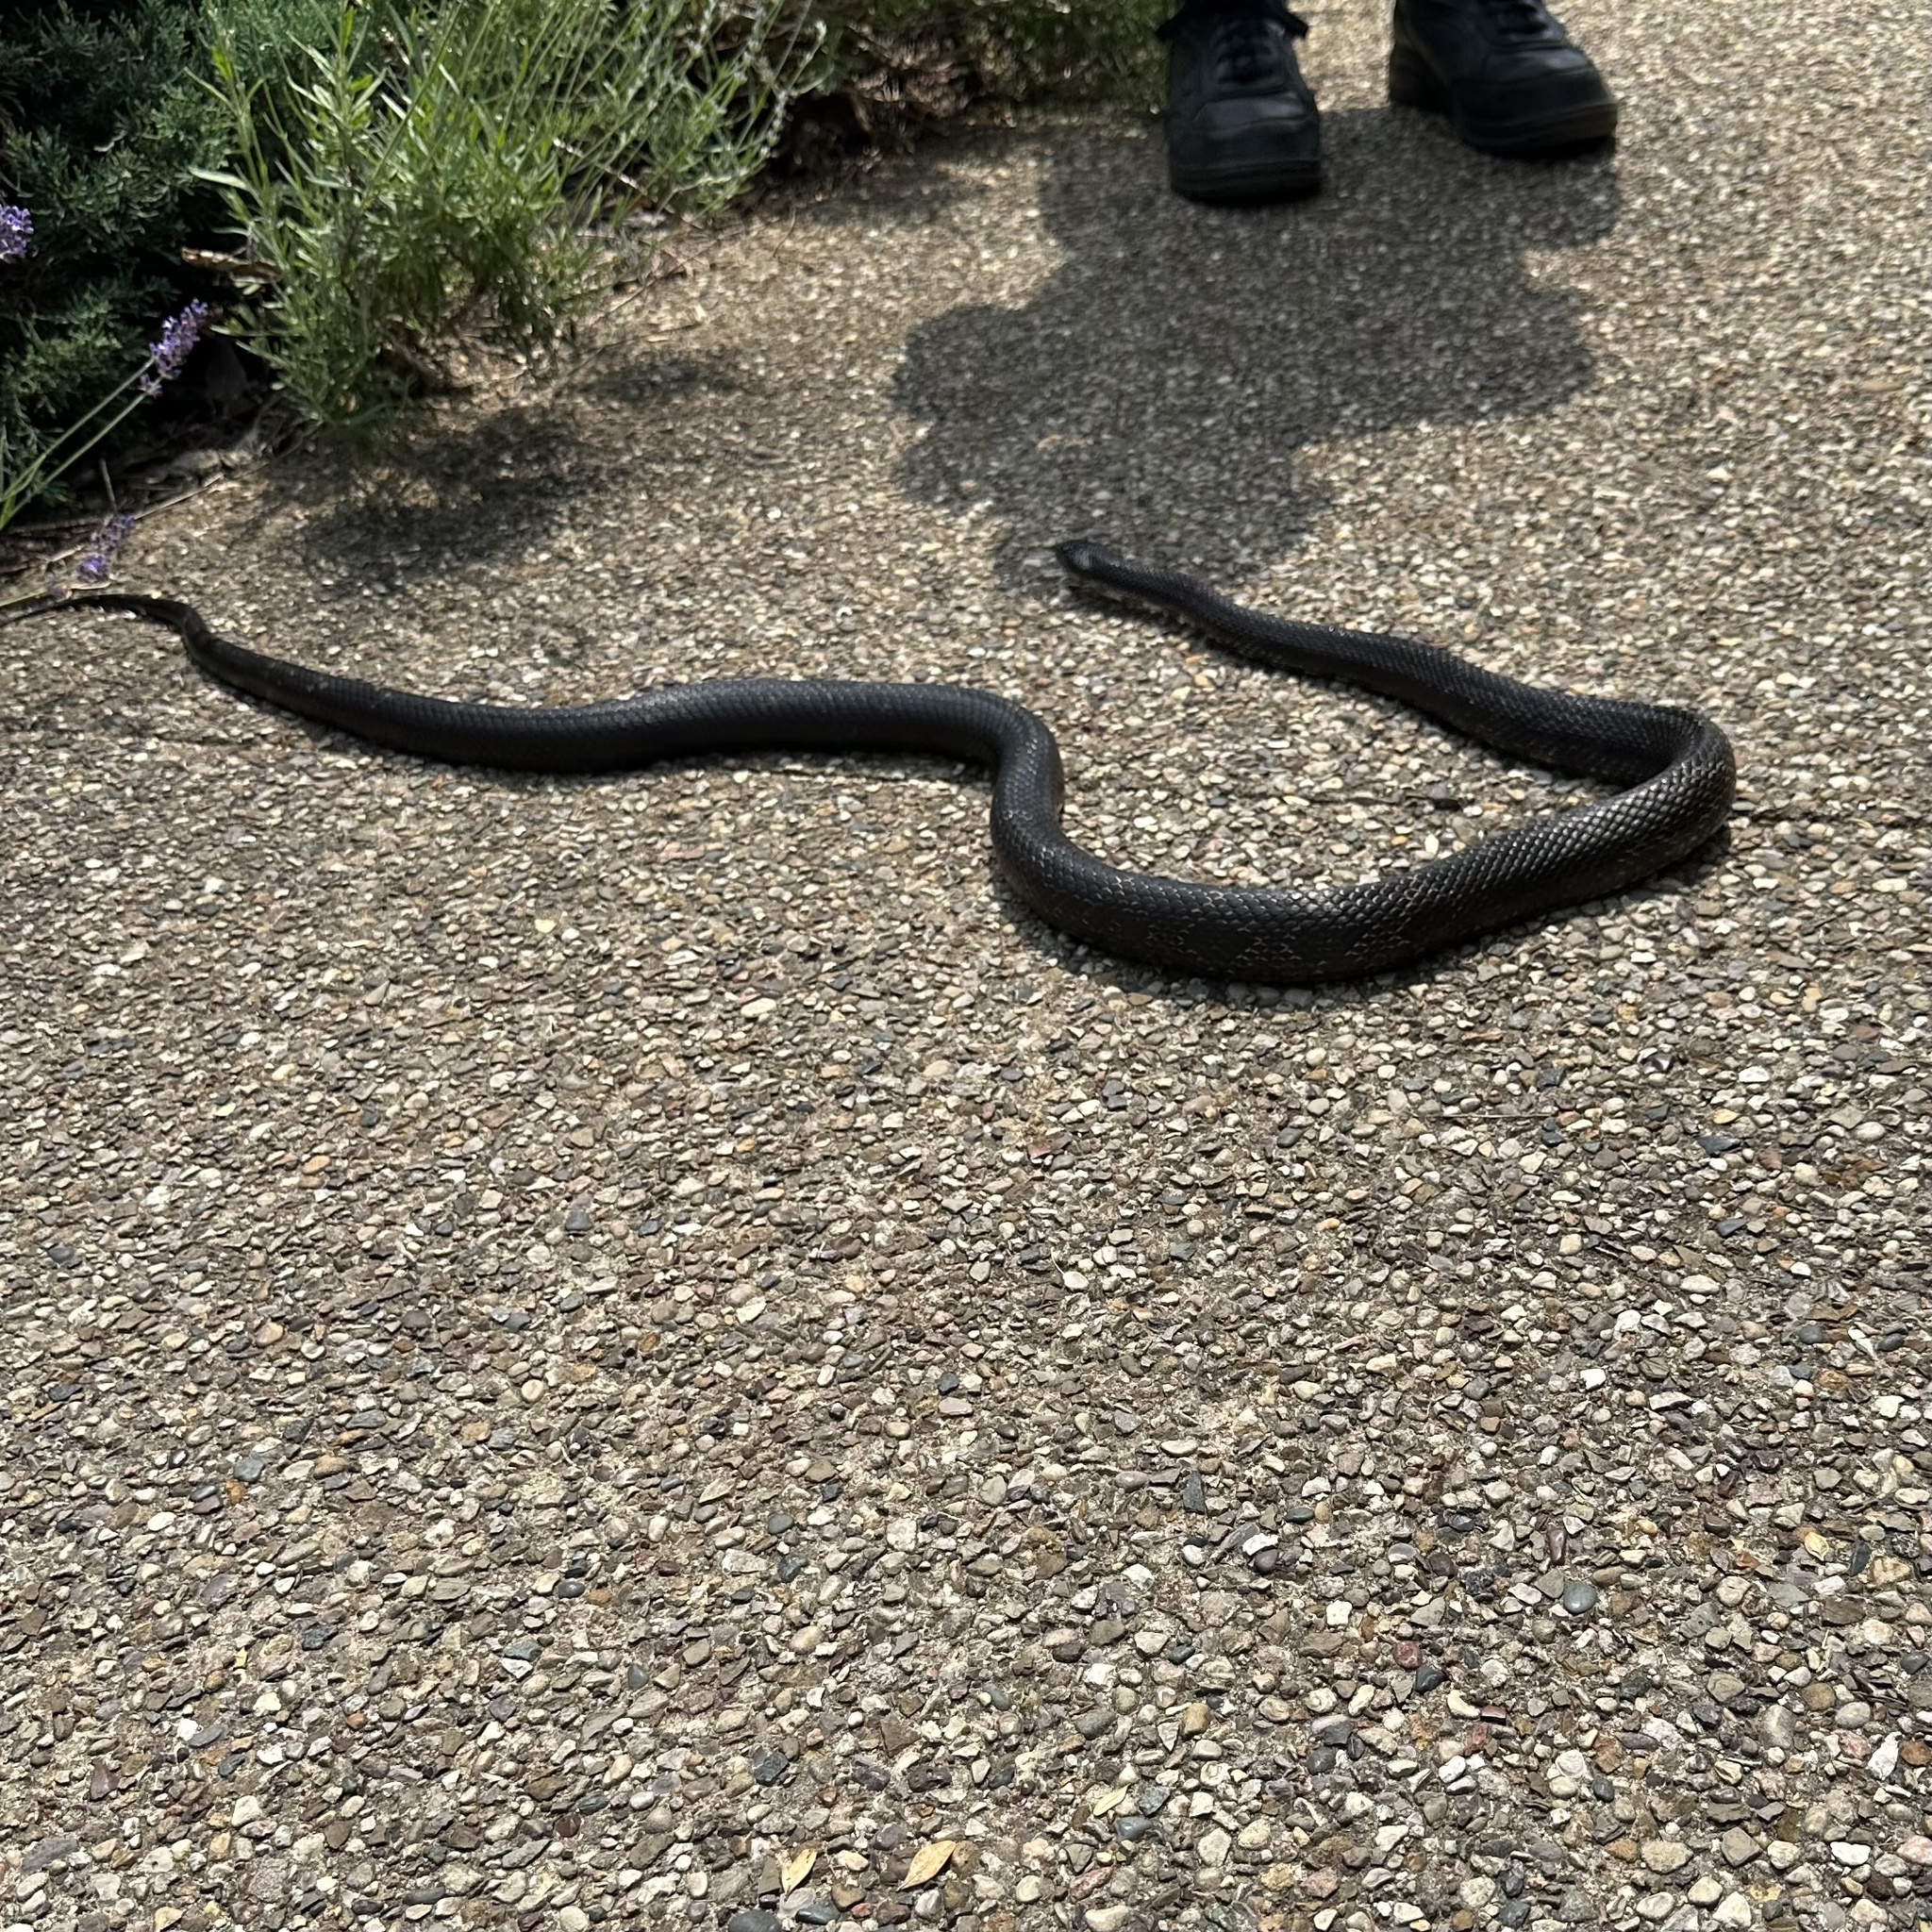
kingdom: Animalia
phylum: Chordata
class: Squamata
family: Colubridae
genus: Pantherophis
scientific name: Pantherophis spiloides
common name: Gray rat snake
